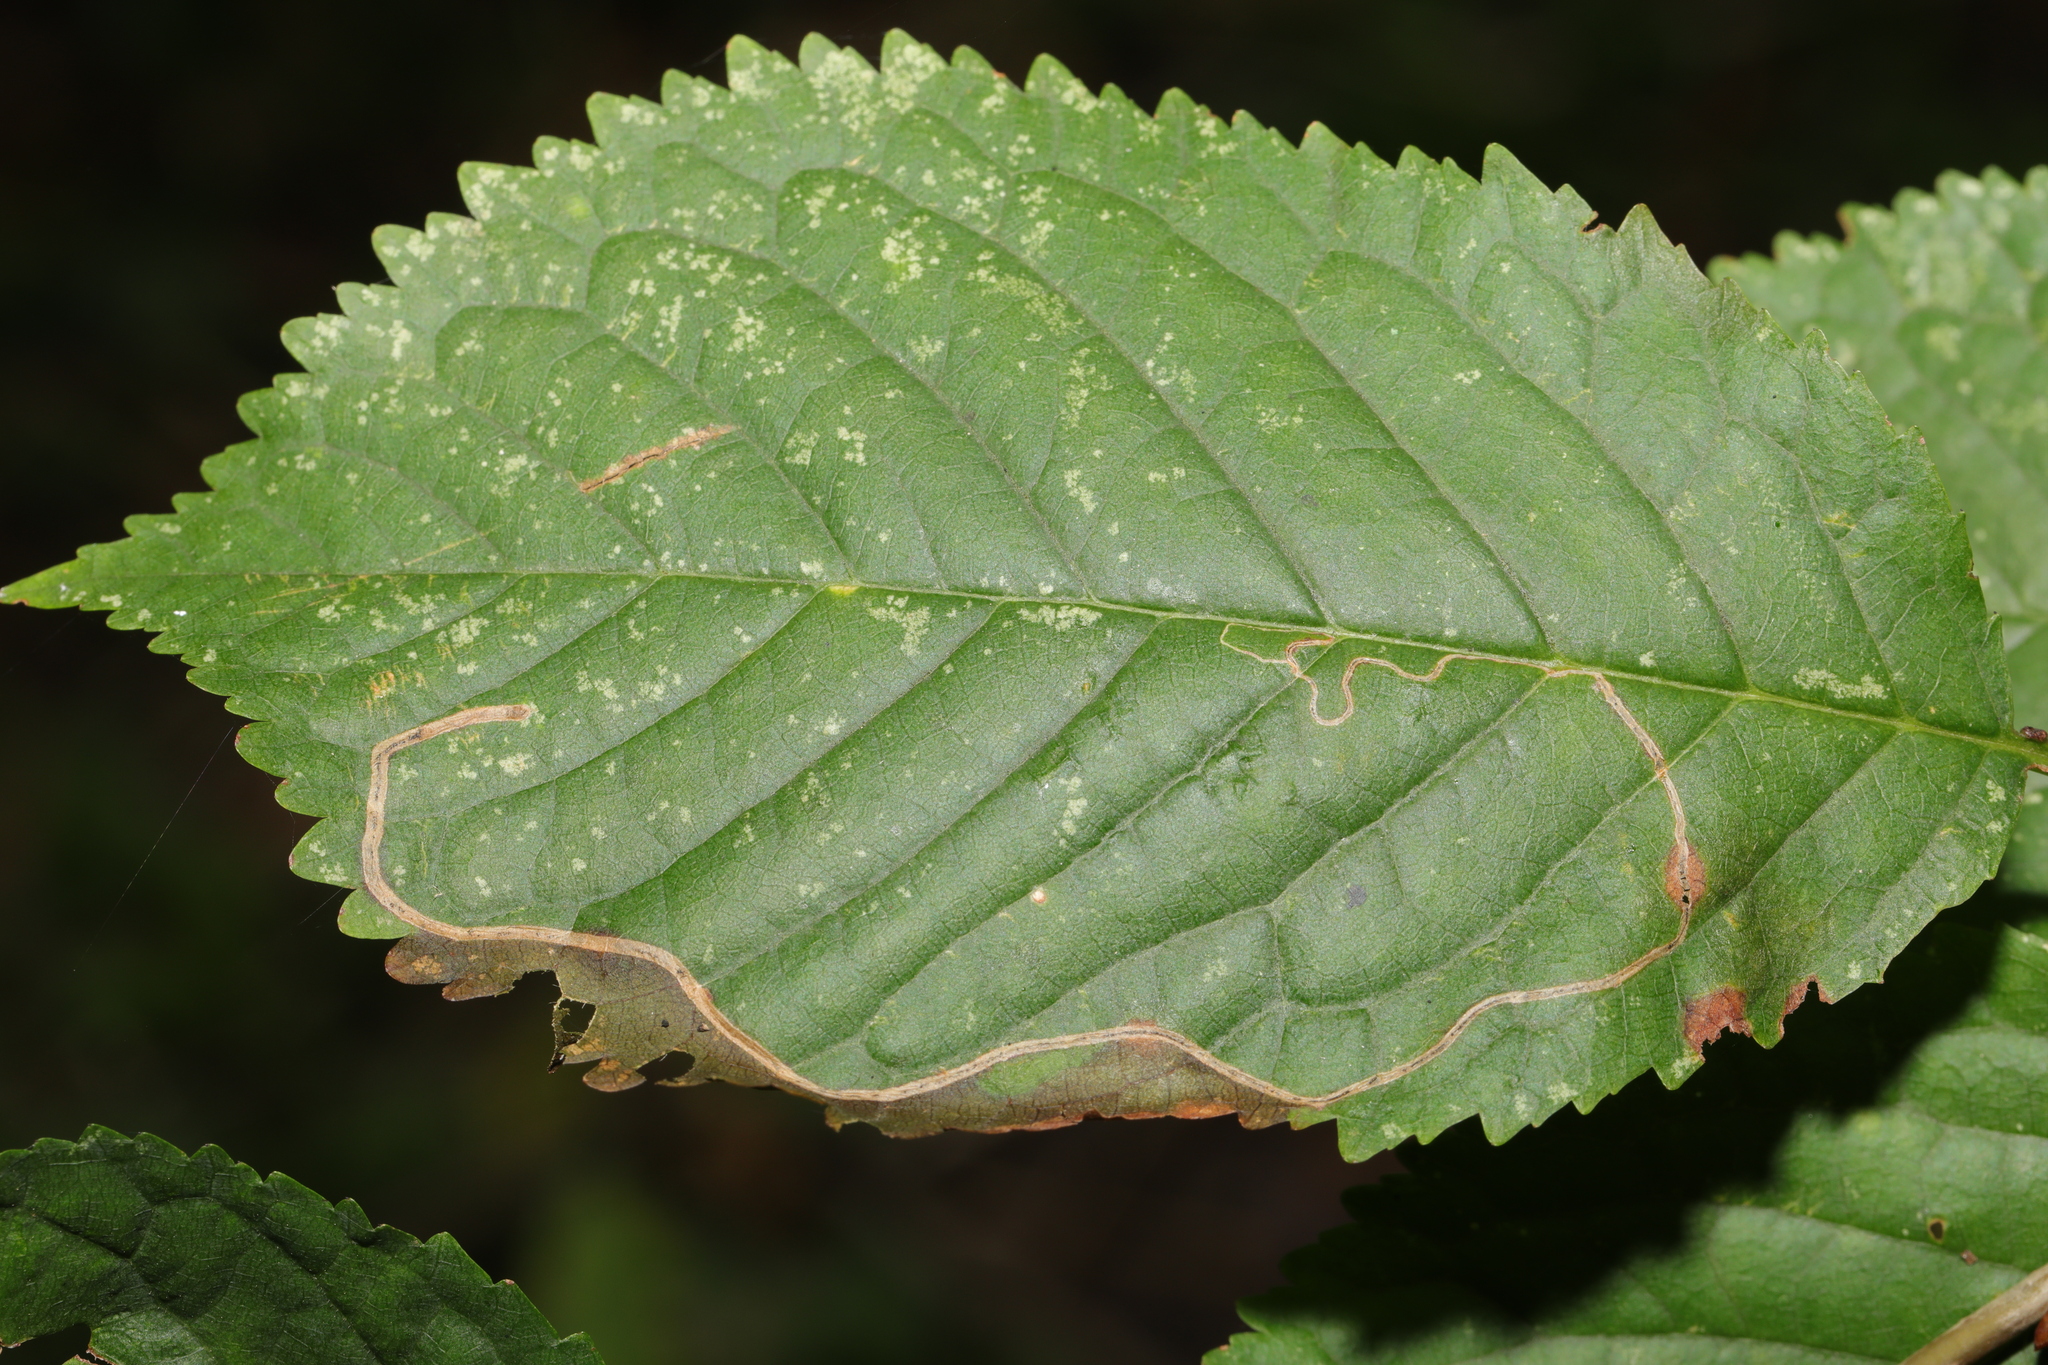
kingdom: Animalia
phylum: Arthropoda
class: Insecta
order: Lepidoptera
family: Lyonetiidae
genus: Lyonetia
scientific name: Lyonetia clerkella
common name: Apple leaf miner
